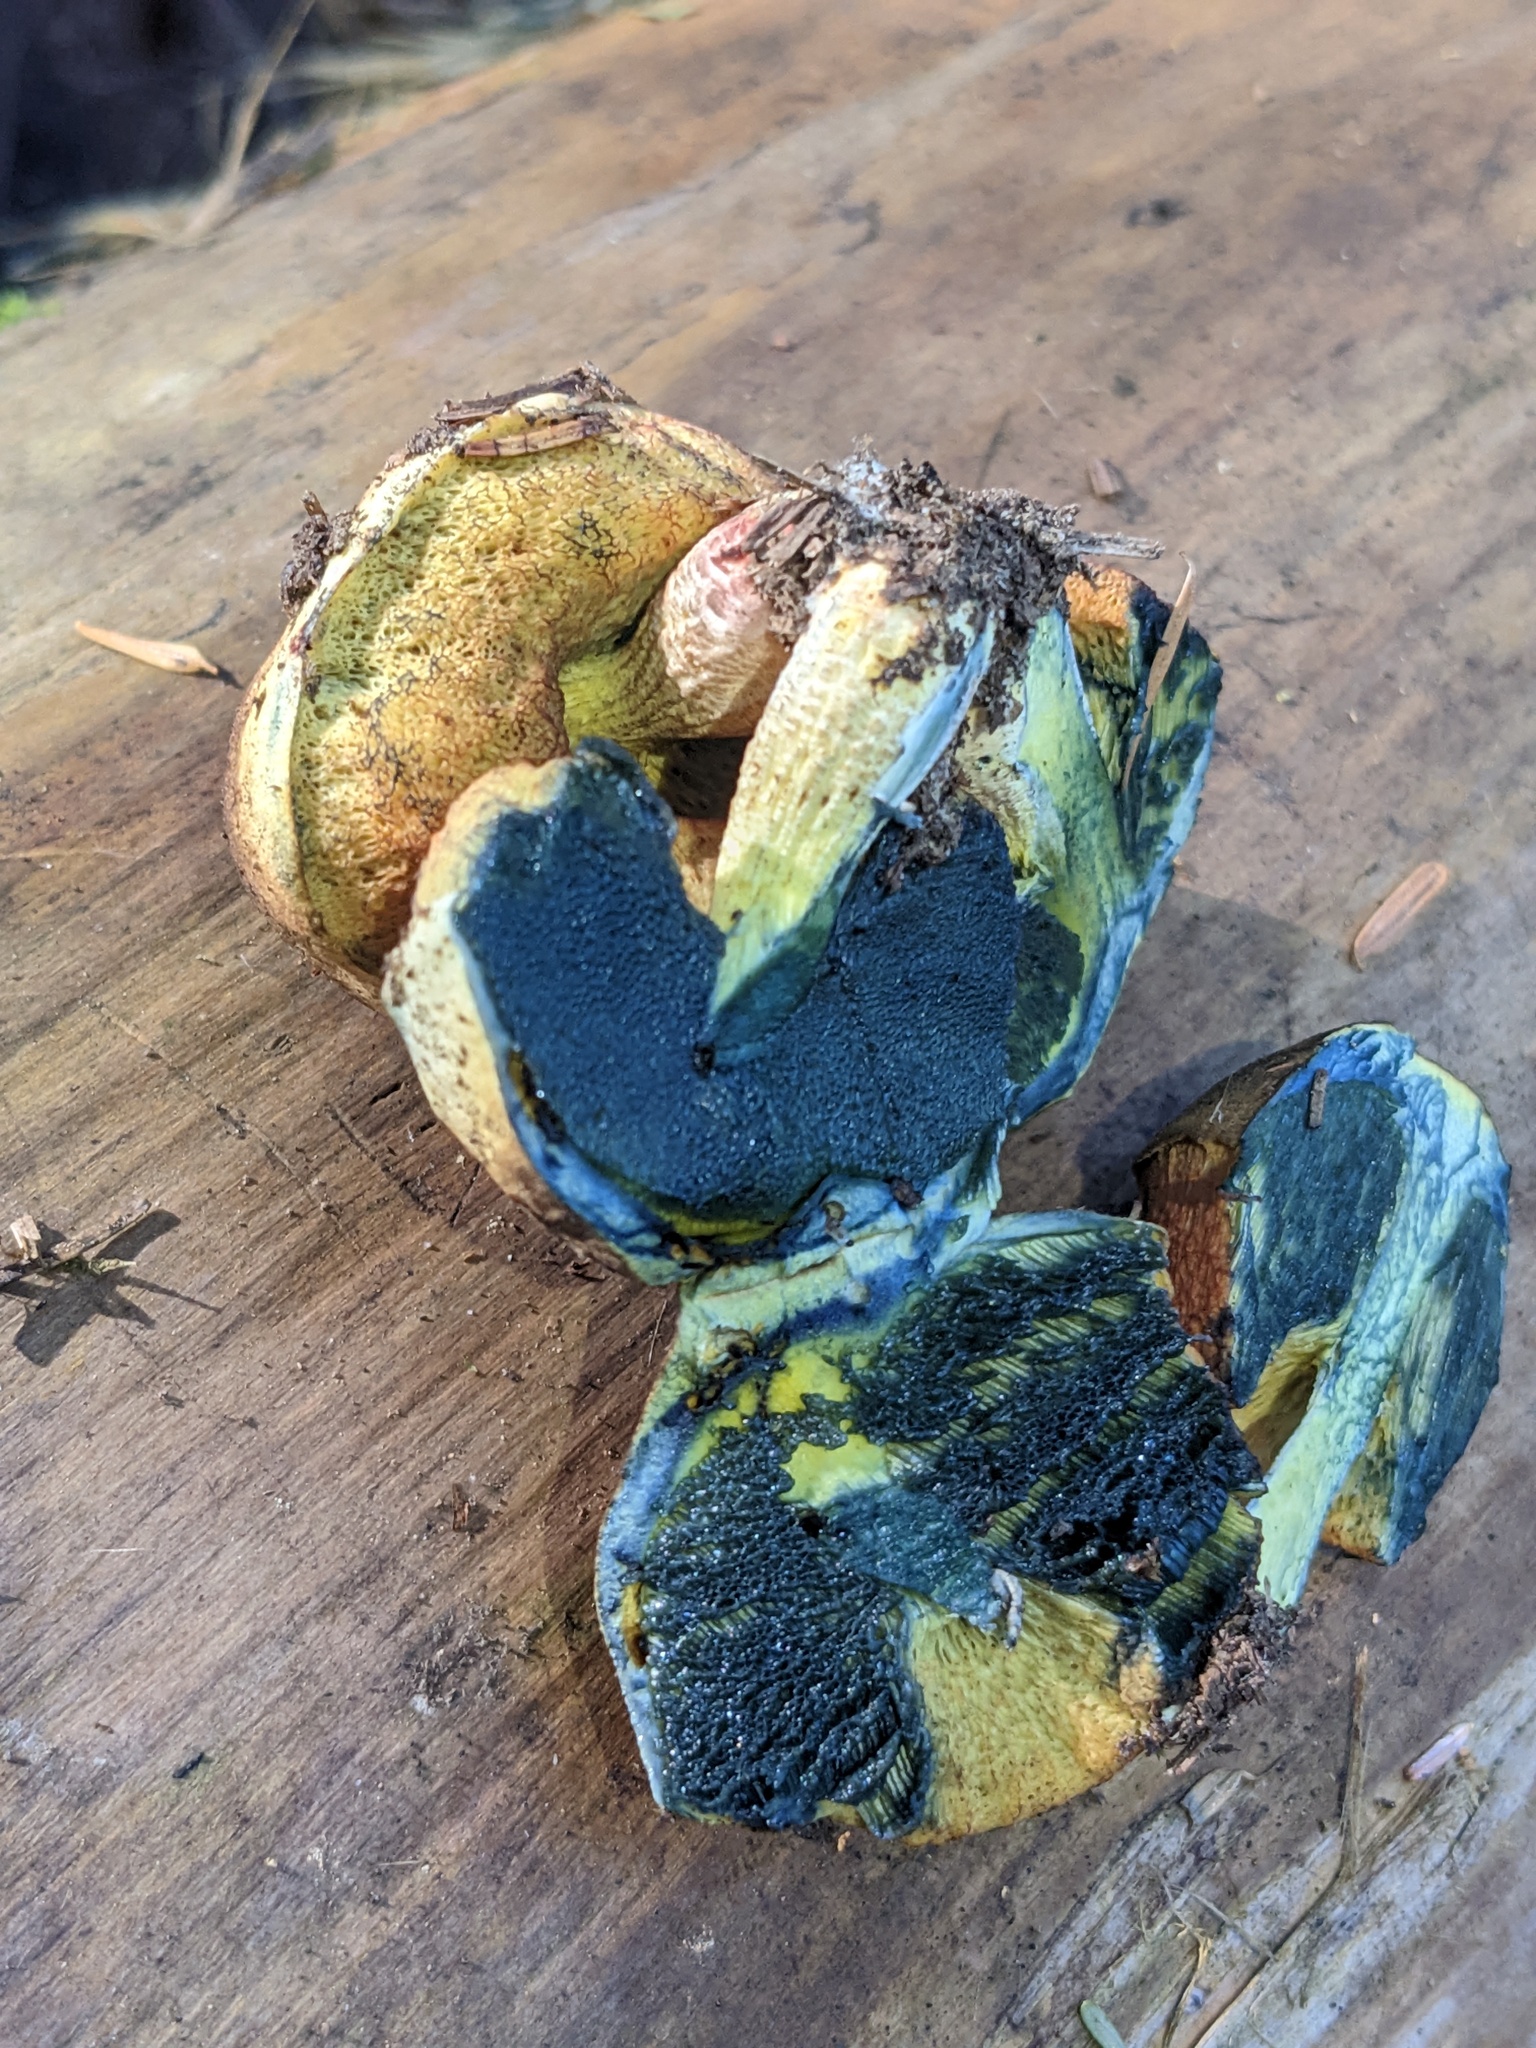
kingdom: Fungi
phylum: Basidiomycota
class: Agaricomycetes
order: Boletales
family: Boletaceae
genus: Gastroboletus
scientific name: Gastroboletus turbinatus
